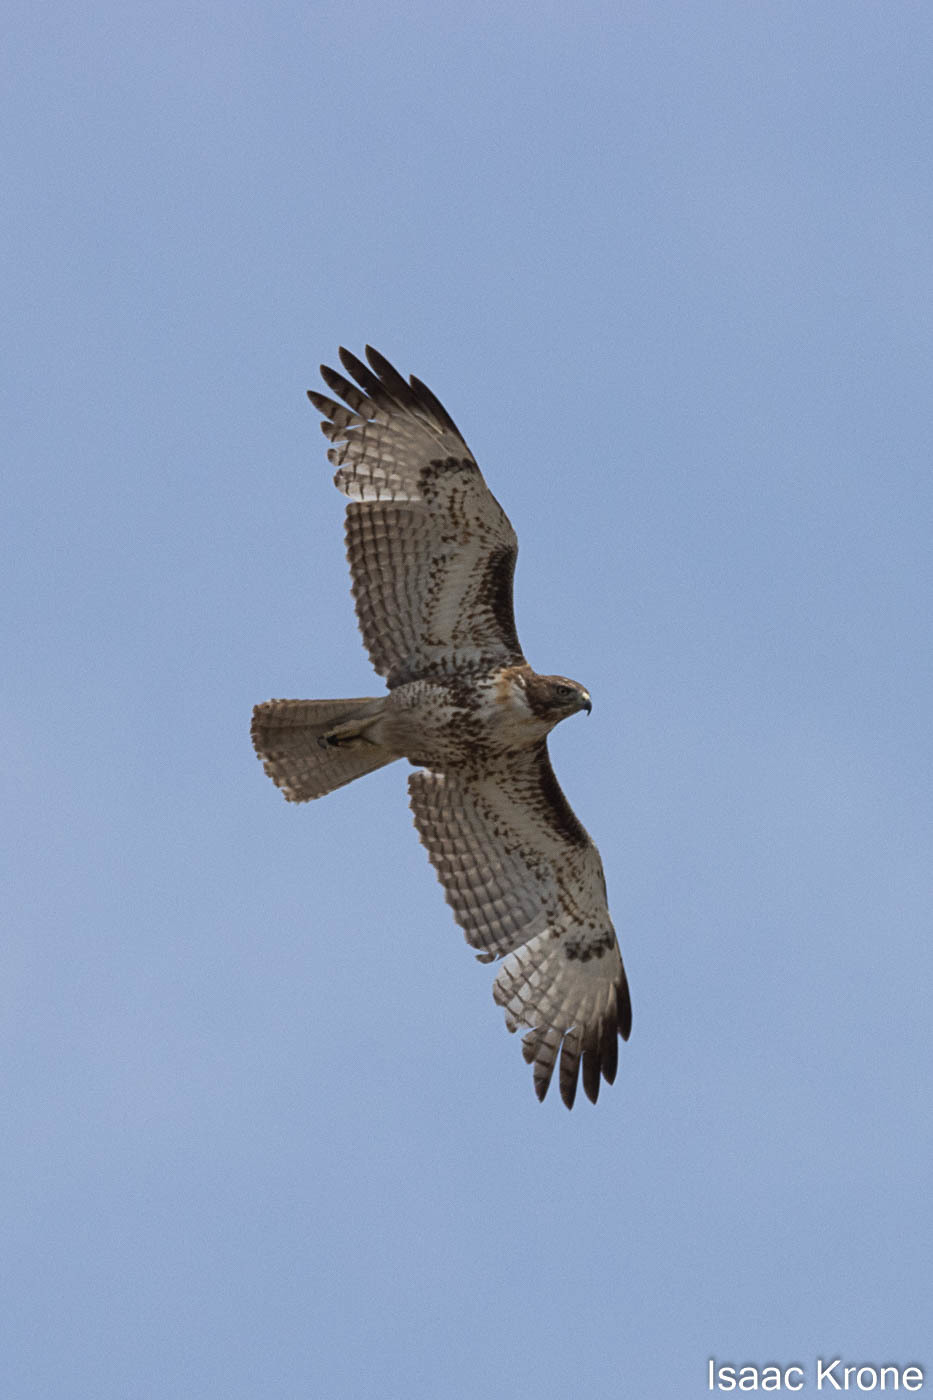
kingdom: Animalia
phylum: Chordata
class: Aves
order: Accipitriformes
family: Accipitridae
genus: Buteo
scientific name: Buteo jamaicensis
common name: Red-tailed hawk
